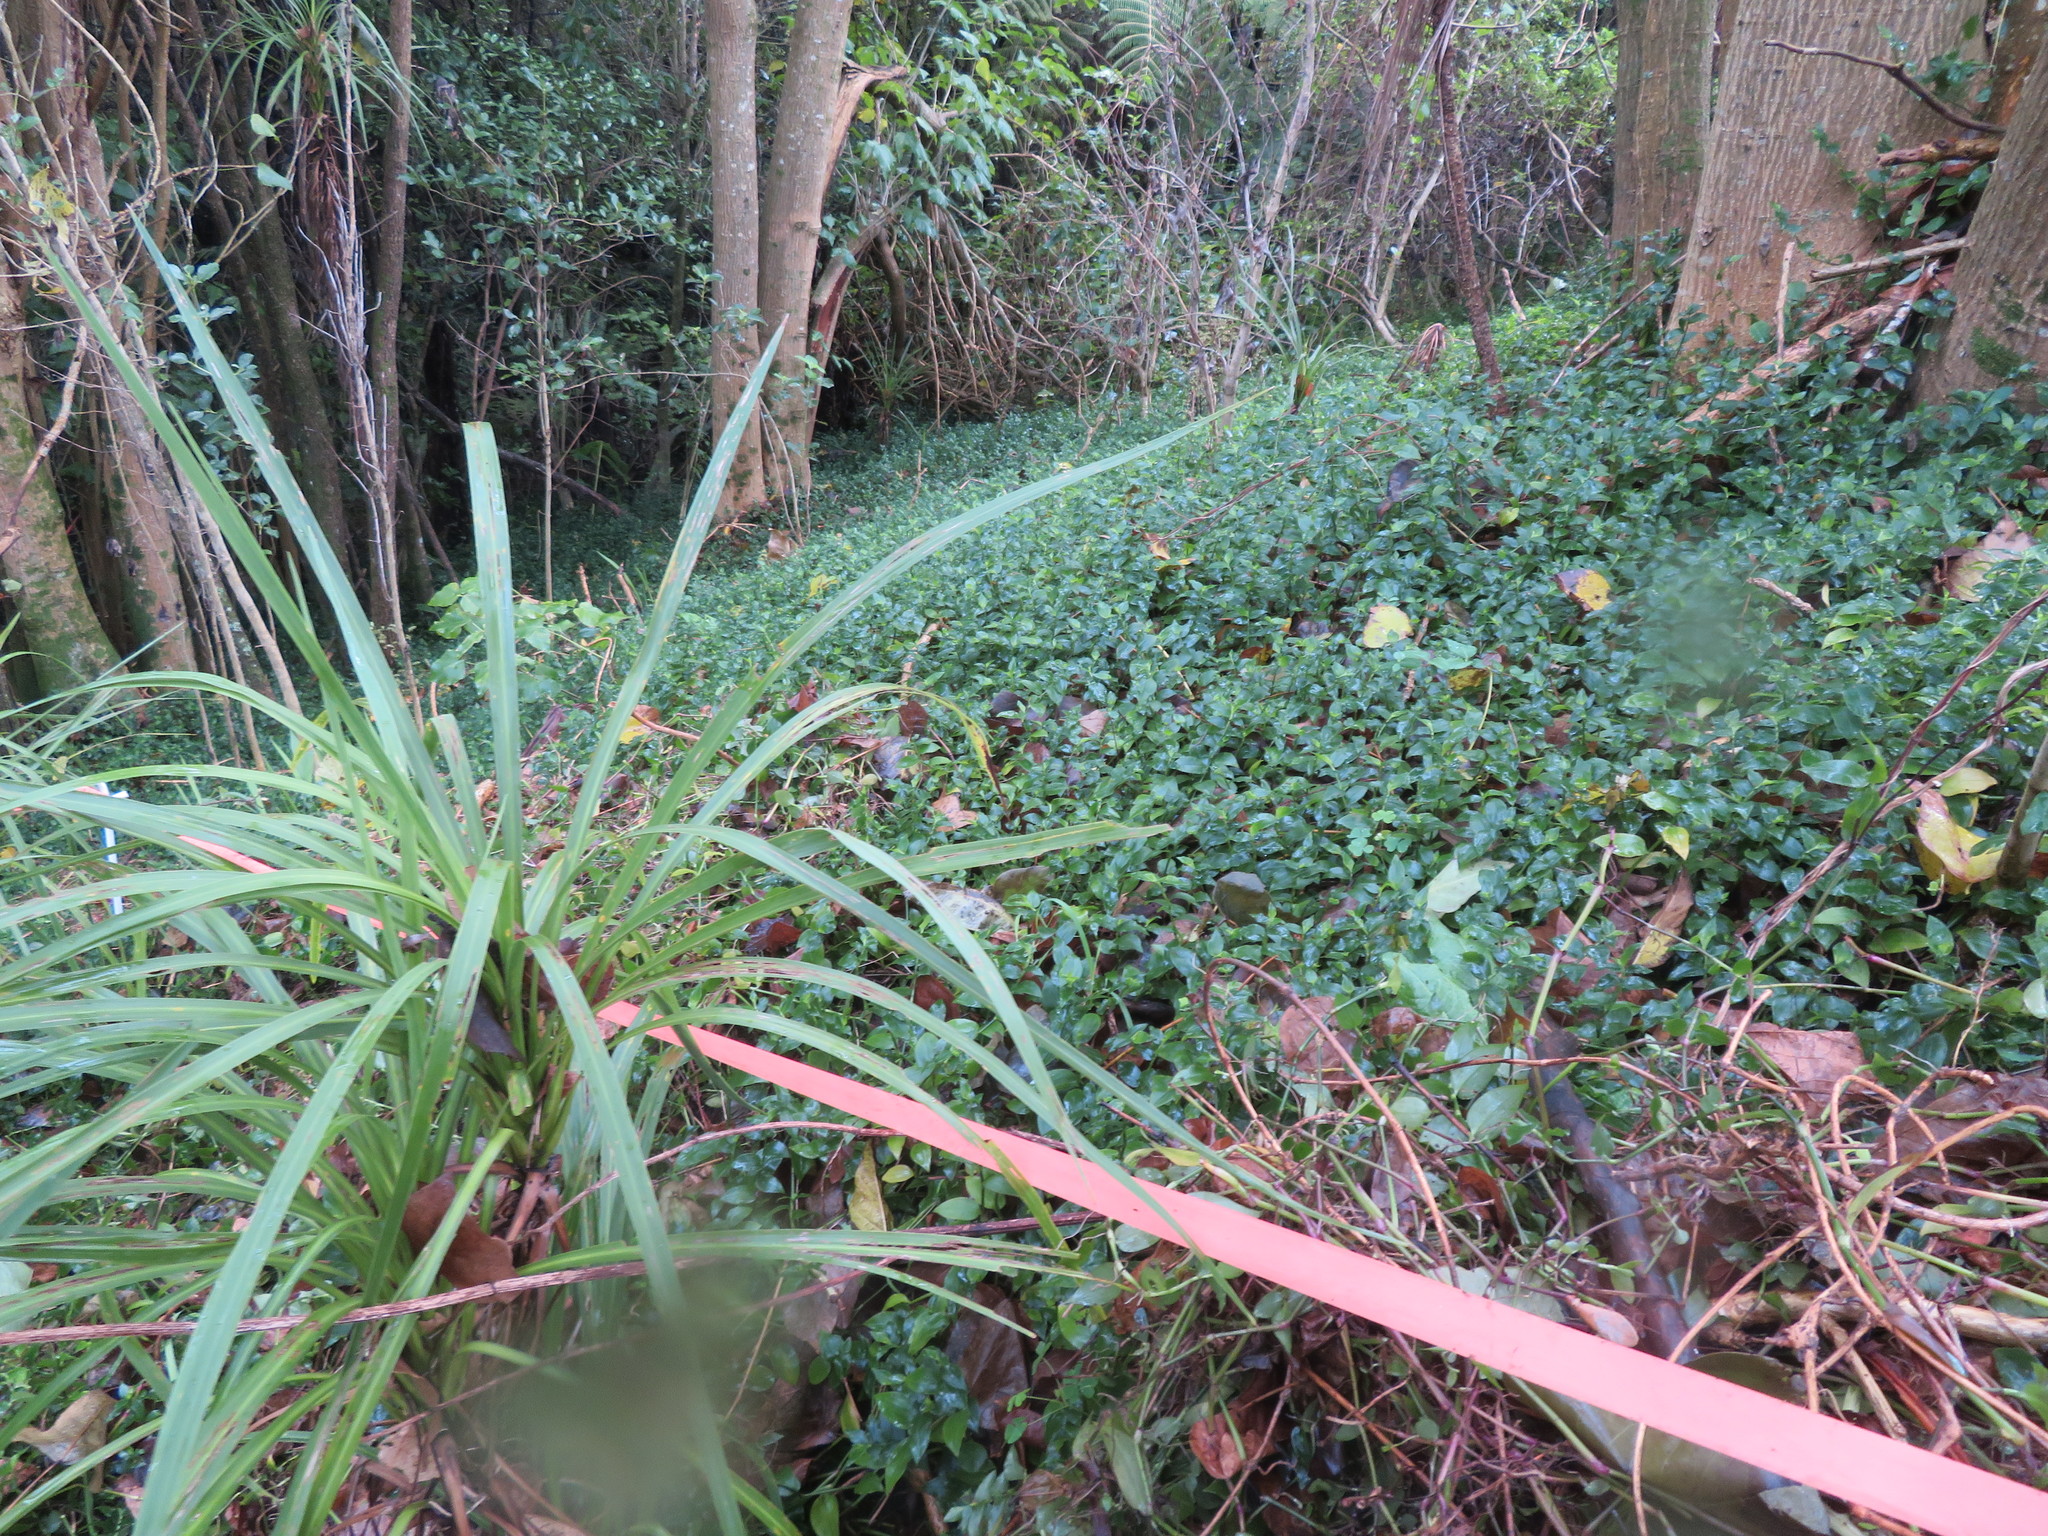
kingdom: Plantae
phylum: Tracheophyta
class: Liliopsida
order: Commelinales
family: Commelinaceae
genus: Tradescantia
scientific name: Tradescantia fluminensis
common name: Wandering-jew
